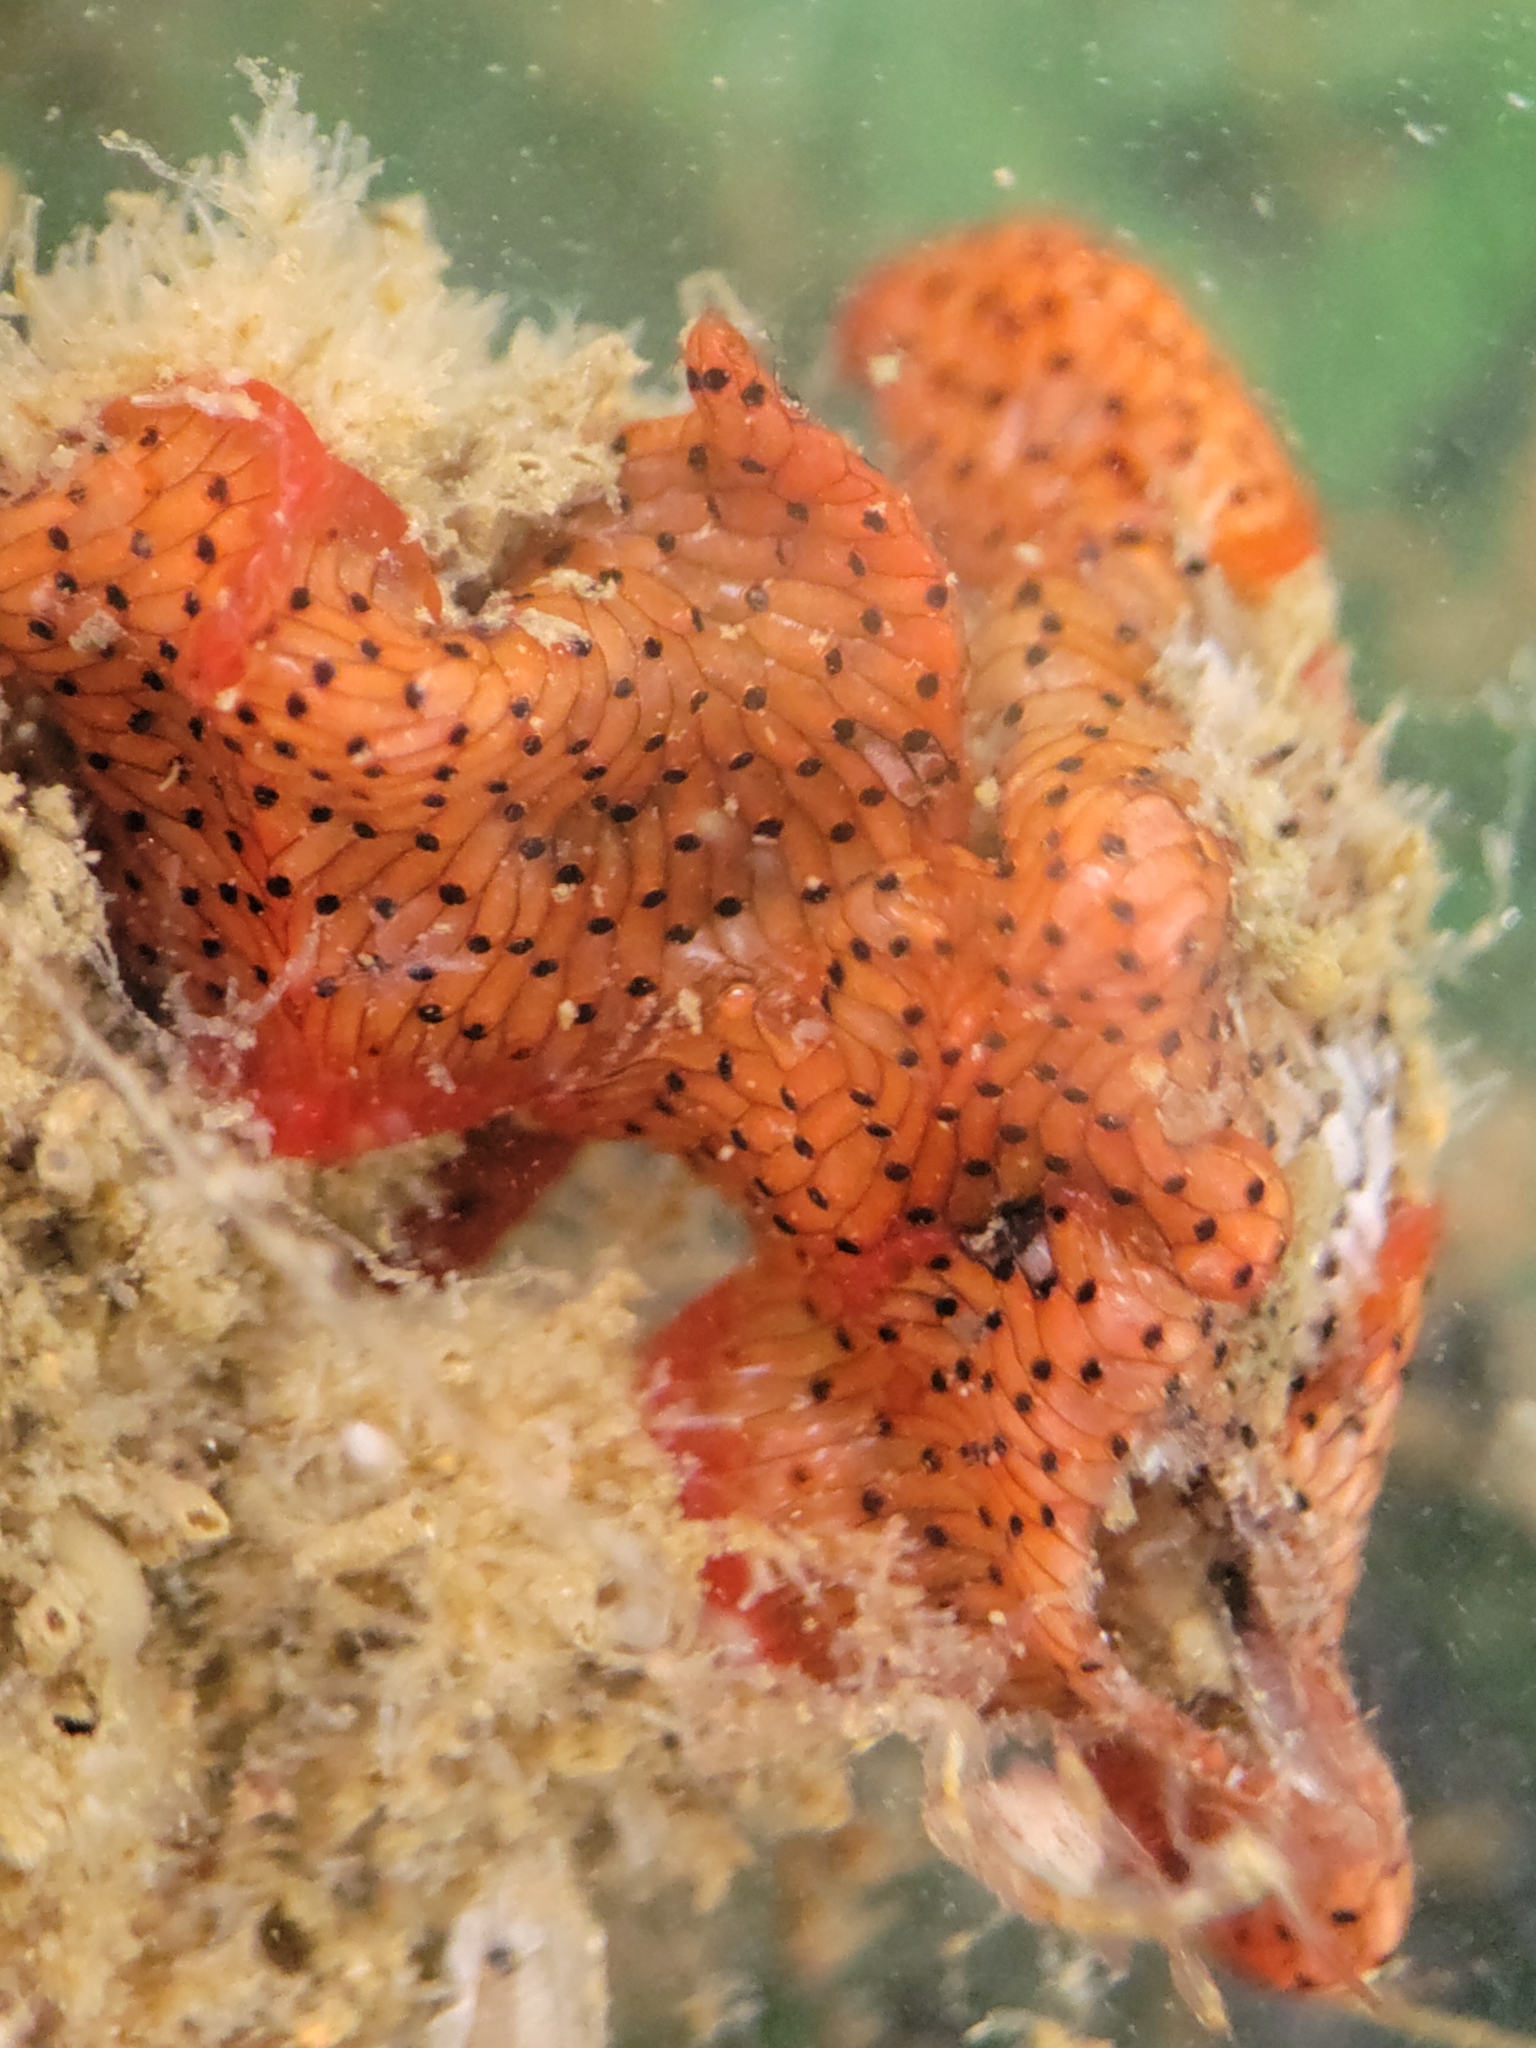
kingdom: Animalia
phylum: Bryozoa
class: Gymnolaemata
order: Cheilostomatida
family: Watersiporidae
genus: Watersipora
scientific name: Watersipora subtorquata
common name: Bryozoan
